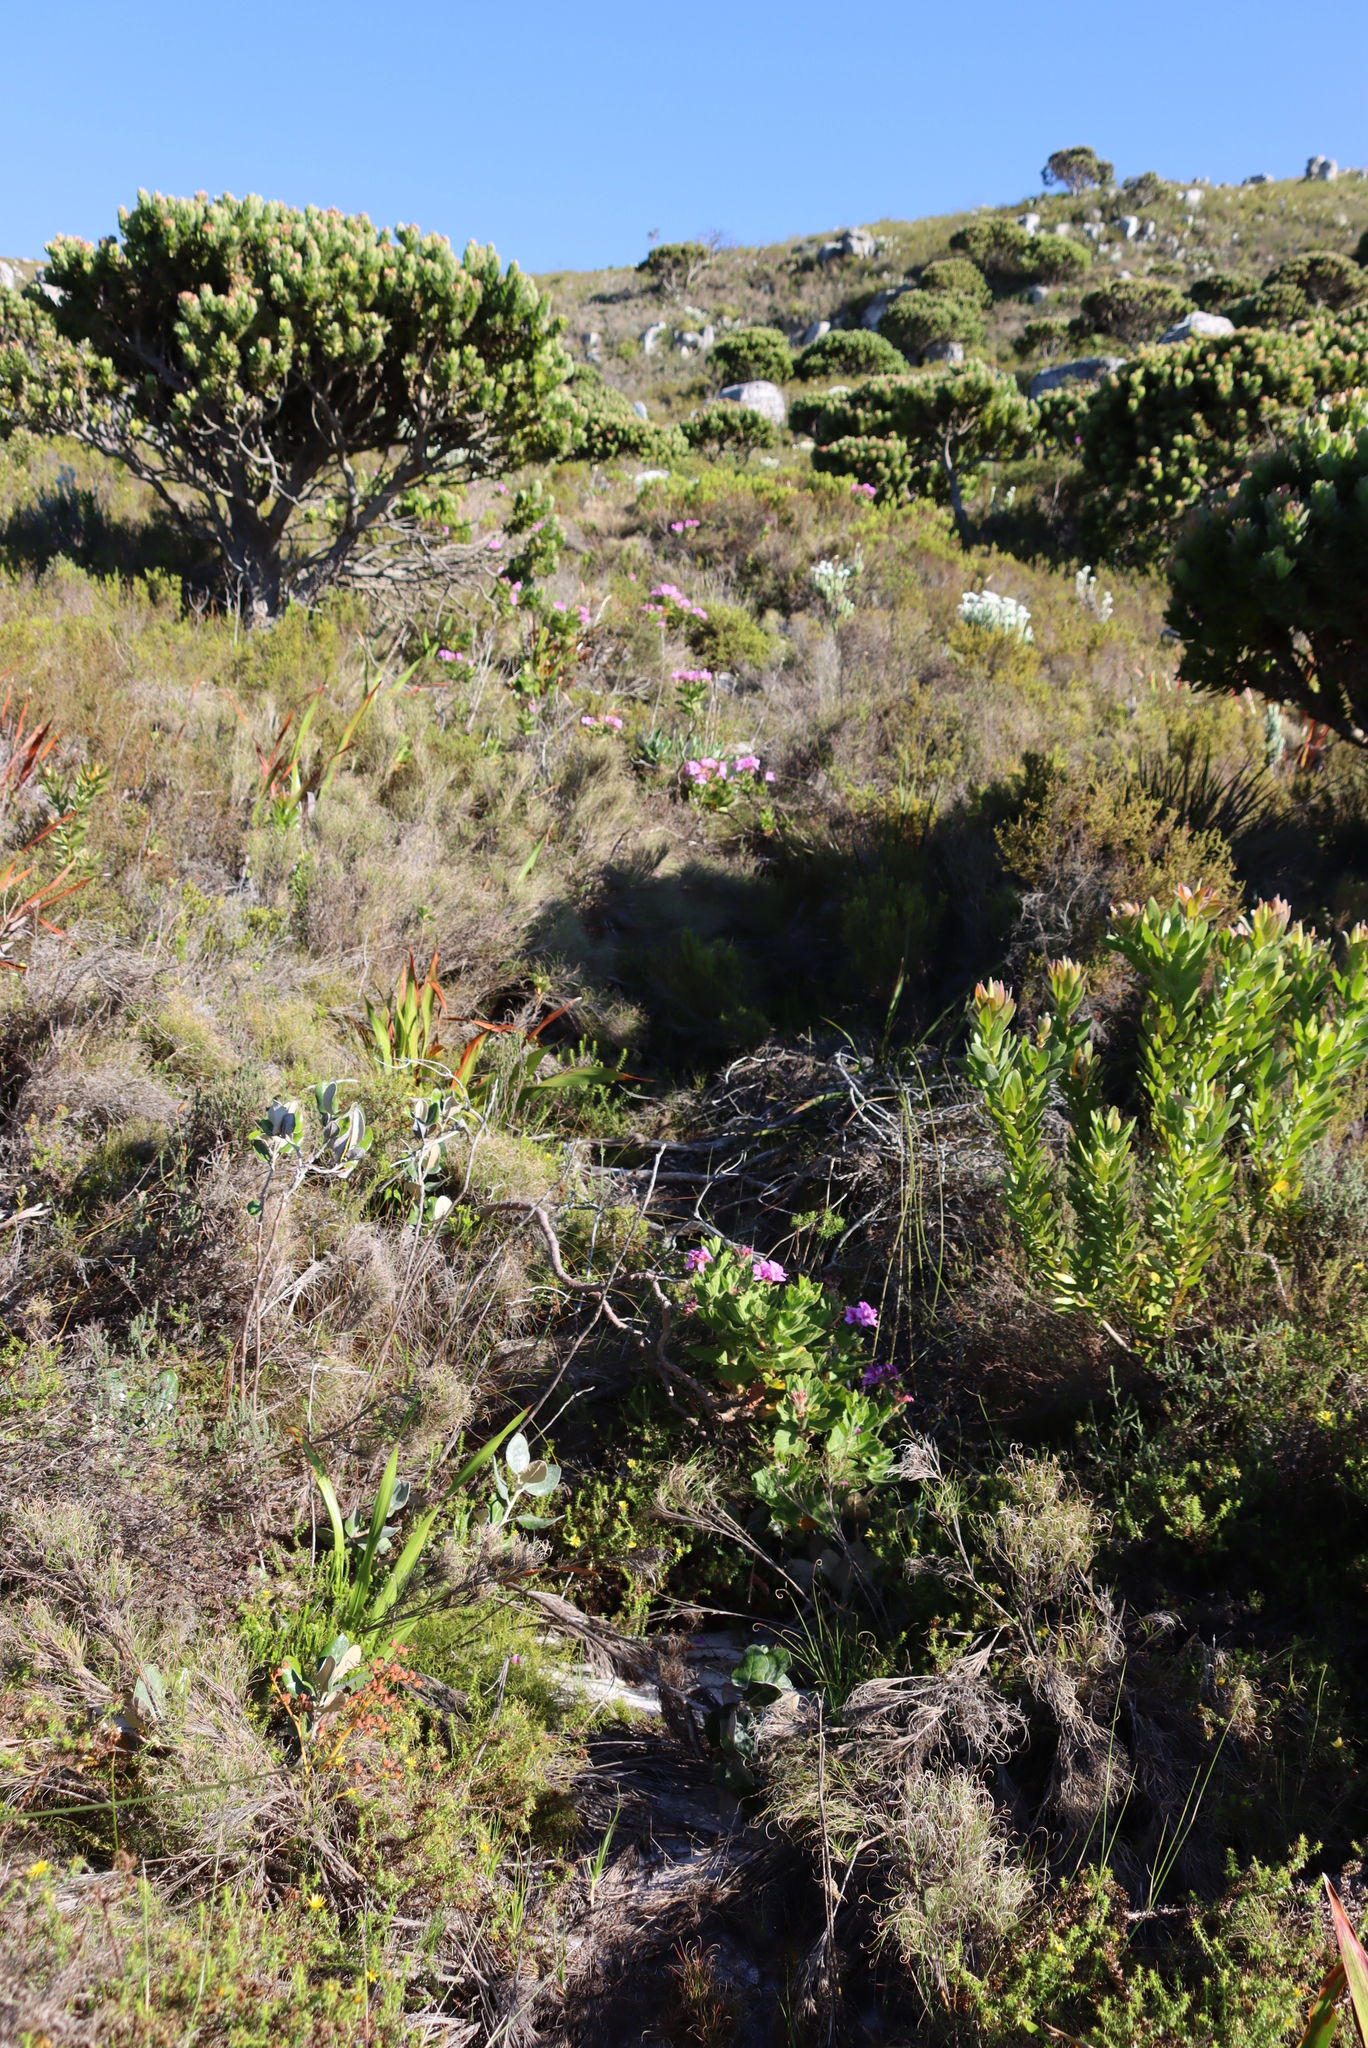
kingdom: Plantae
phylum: Tracheophyta
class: Magnoliopsida
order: Geraniales
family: Geraniaceae
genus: Pelargonium
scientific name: Pelargonium cucullatum
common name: Tree pelargonium
